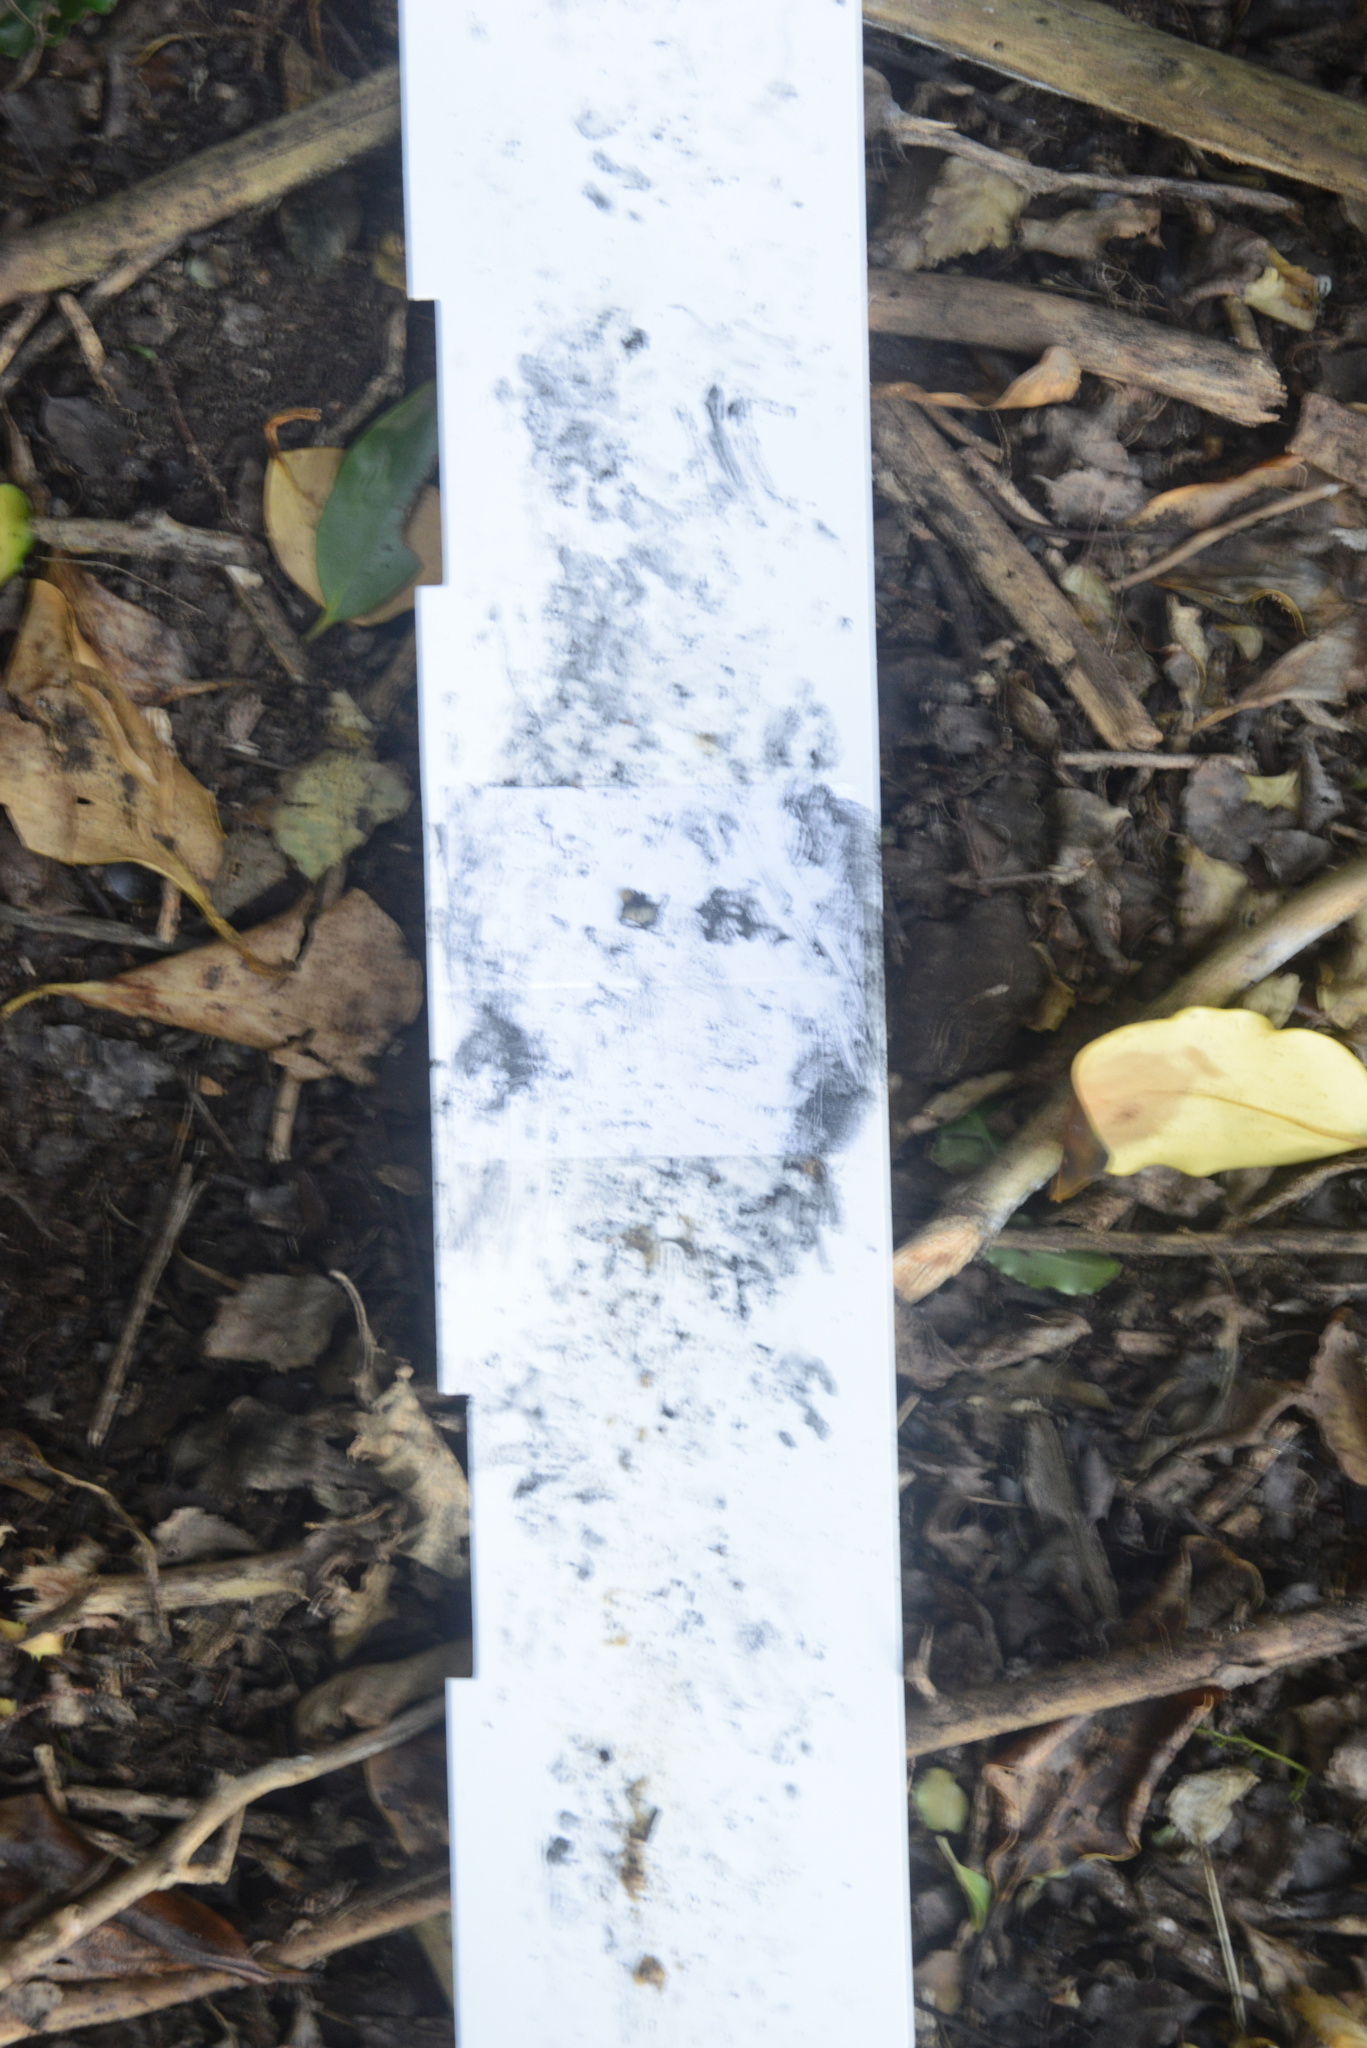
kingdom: Animalia
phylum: Chordata
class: Mammalia
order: Erinaceomorpha
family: Erinaceidae
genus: Erinaceus
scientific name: Erinaceus europaeus
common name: West european hedgehog
